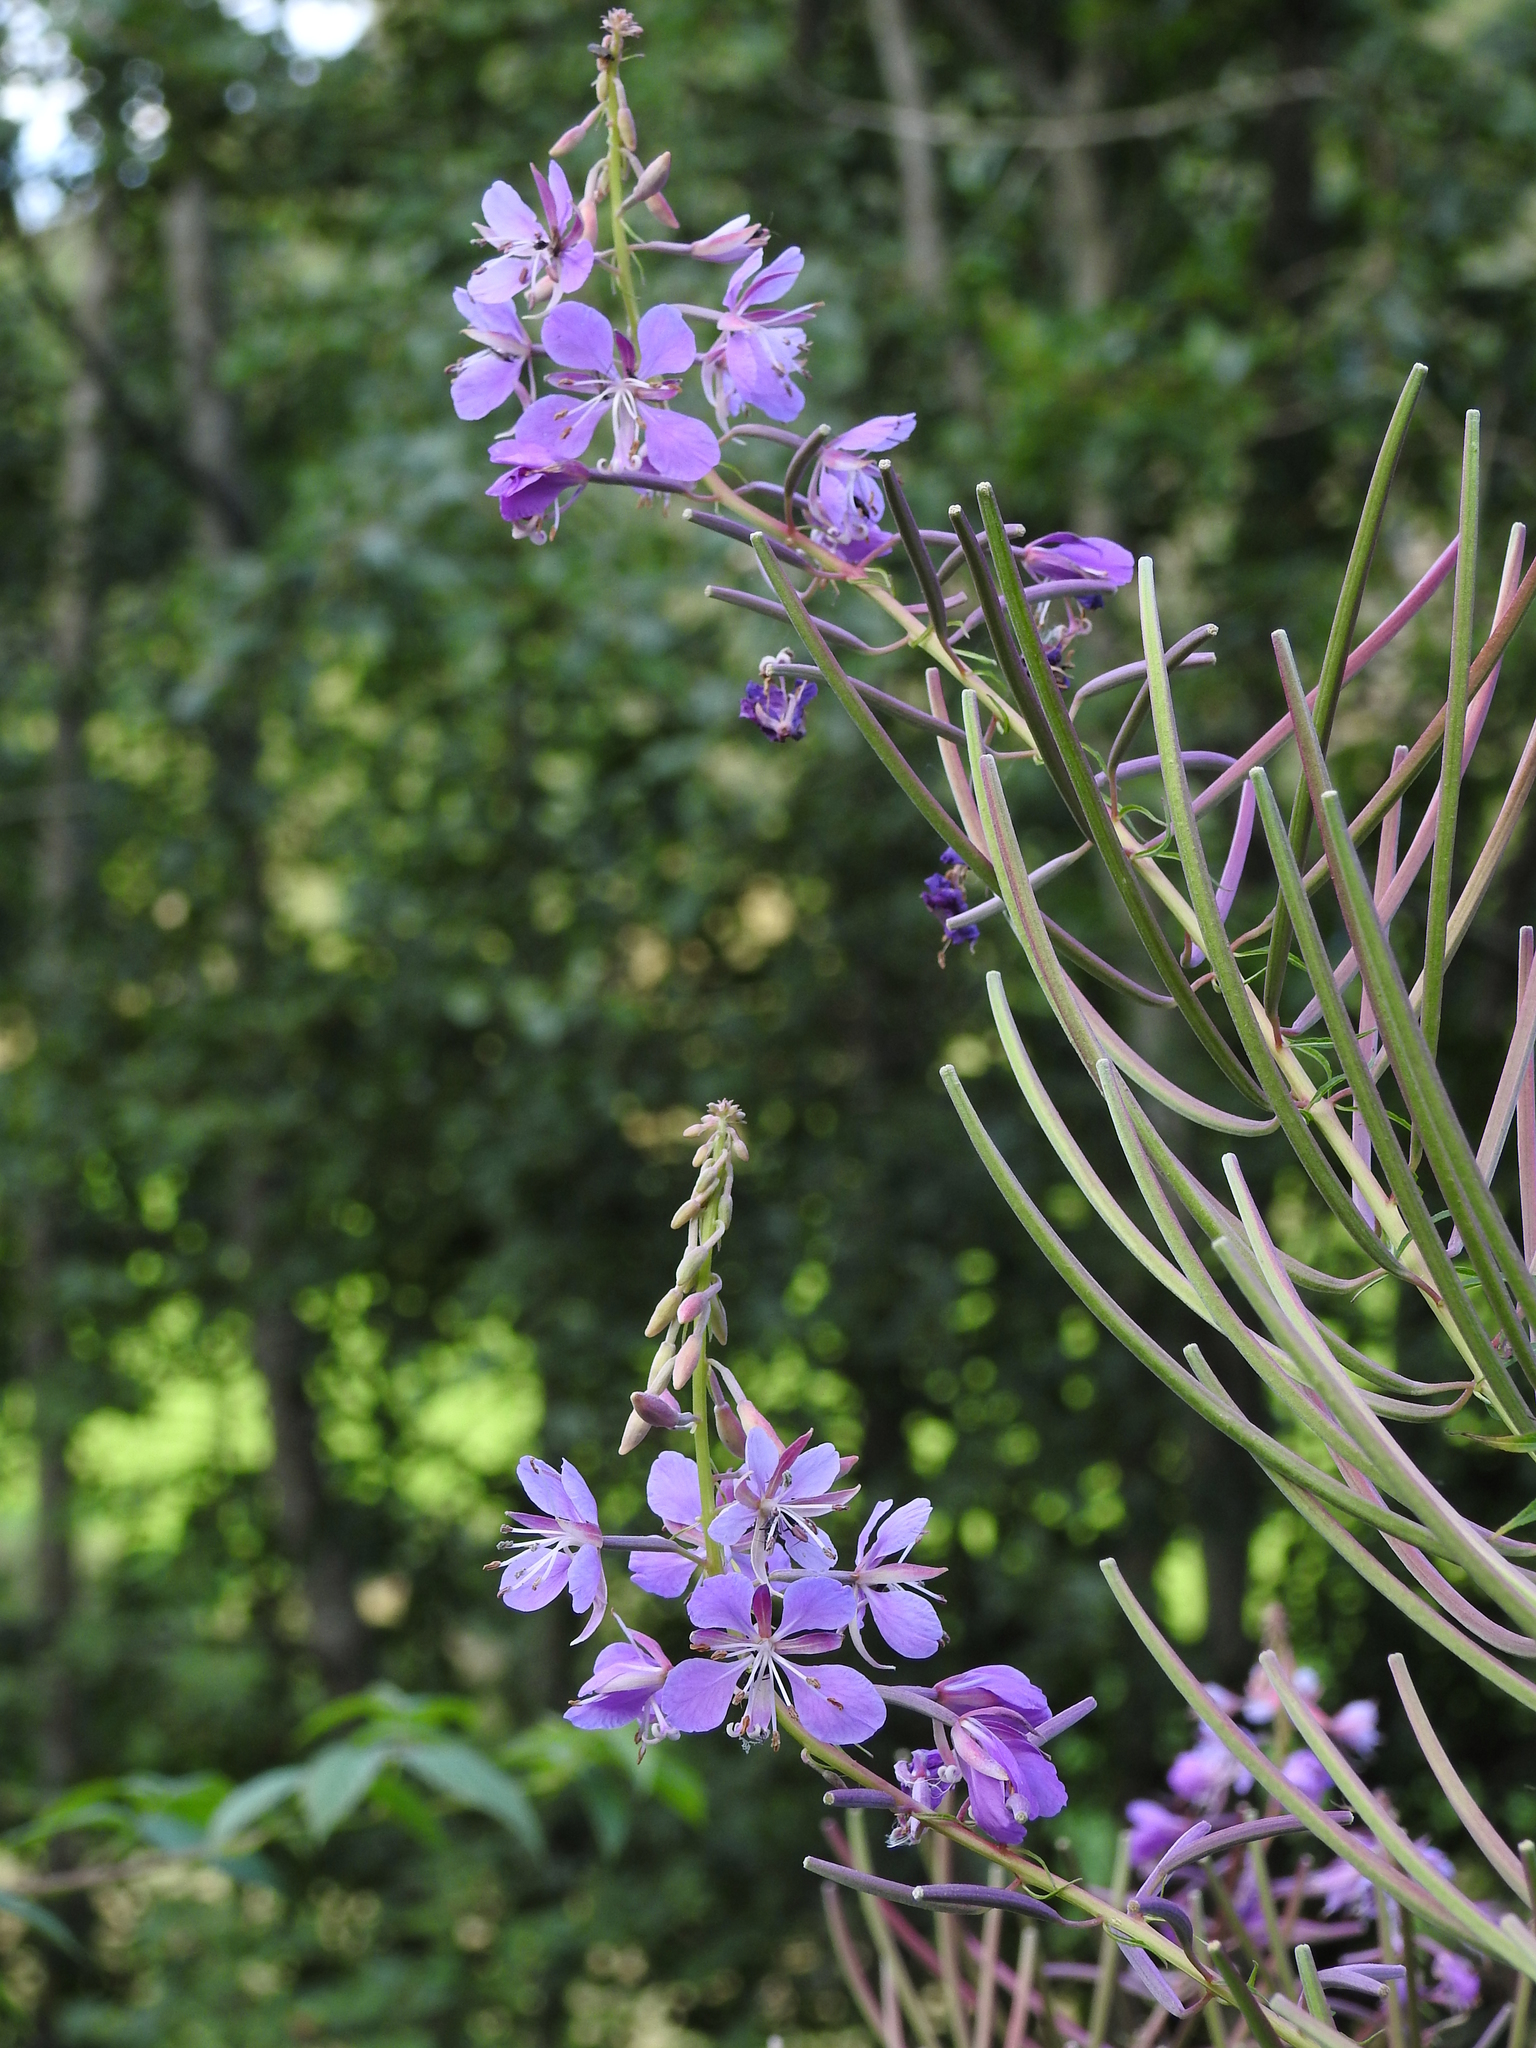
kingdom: Plantae
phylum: Tracheophyta
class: Magnoliopsida
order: Myrtales
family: Onagraceae
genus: Chamaenerion
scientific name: Chamaenerion angustifolium
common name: Fireweed
